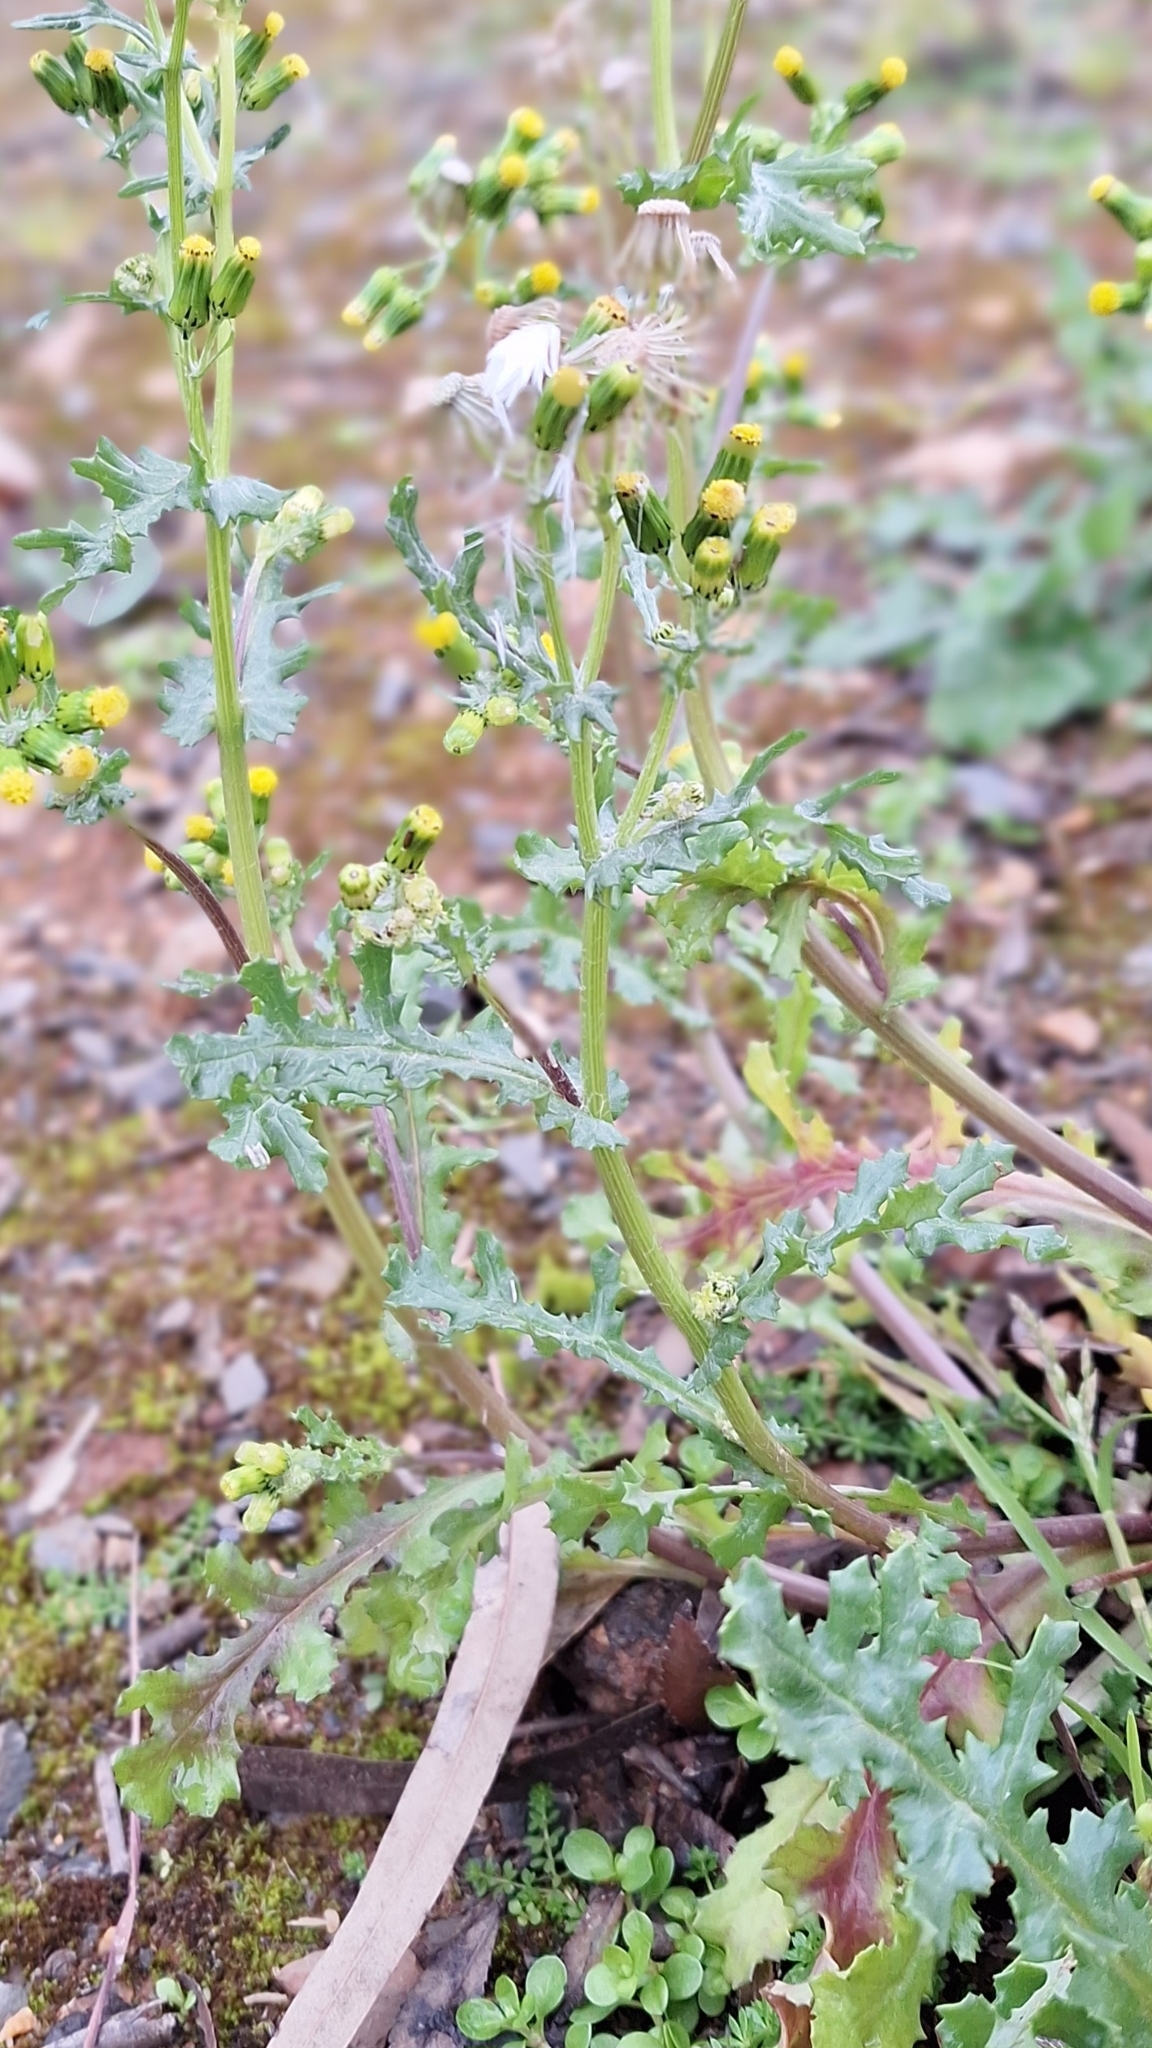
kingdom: Plantae
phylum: Tracheophyta
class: Magnoliopsida
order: Asterales
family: Asteraceae
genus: Senecio
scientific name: Senecio vulgaris
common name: Old-man-in-the-spring
